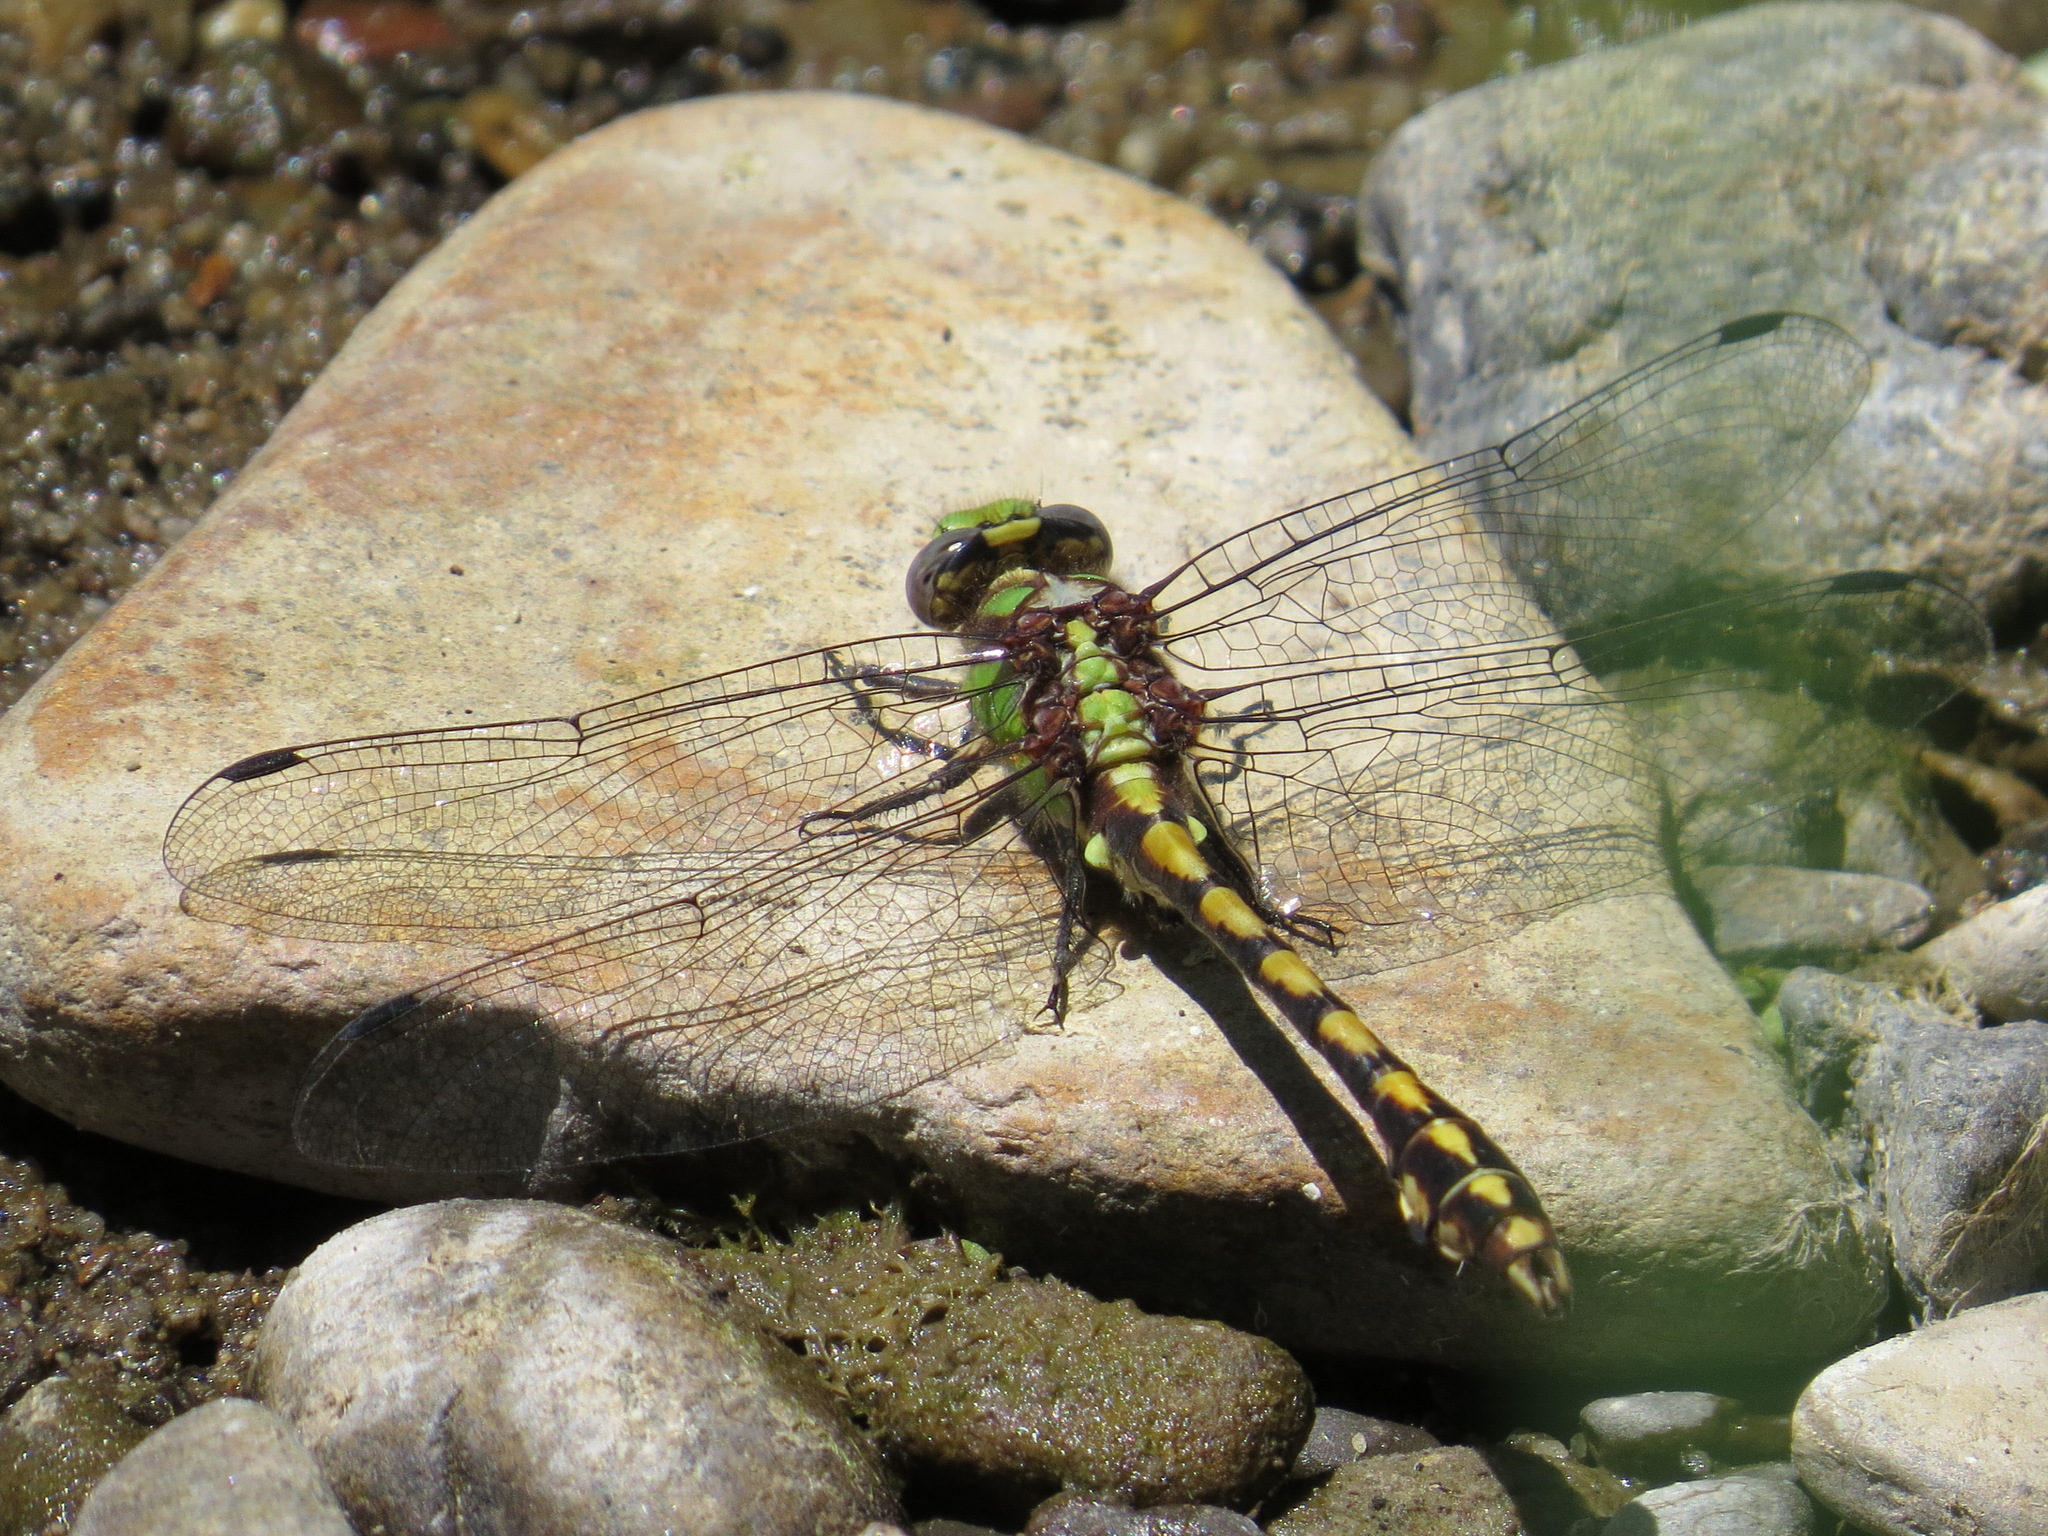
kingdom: Animalia
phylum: Arthropoda
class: Insecta
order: Odonata
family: Gomphidae
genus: Ophiogomphus
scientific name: Ophiogomphus bison
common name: Bison snaketail
